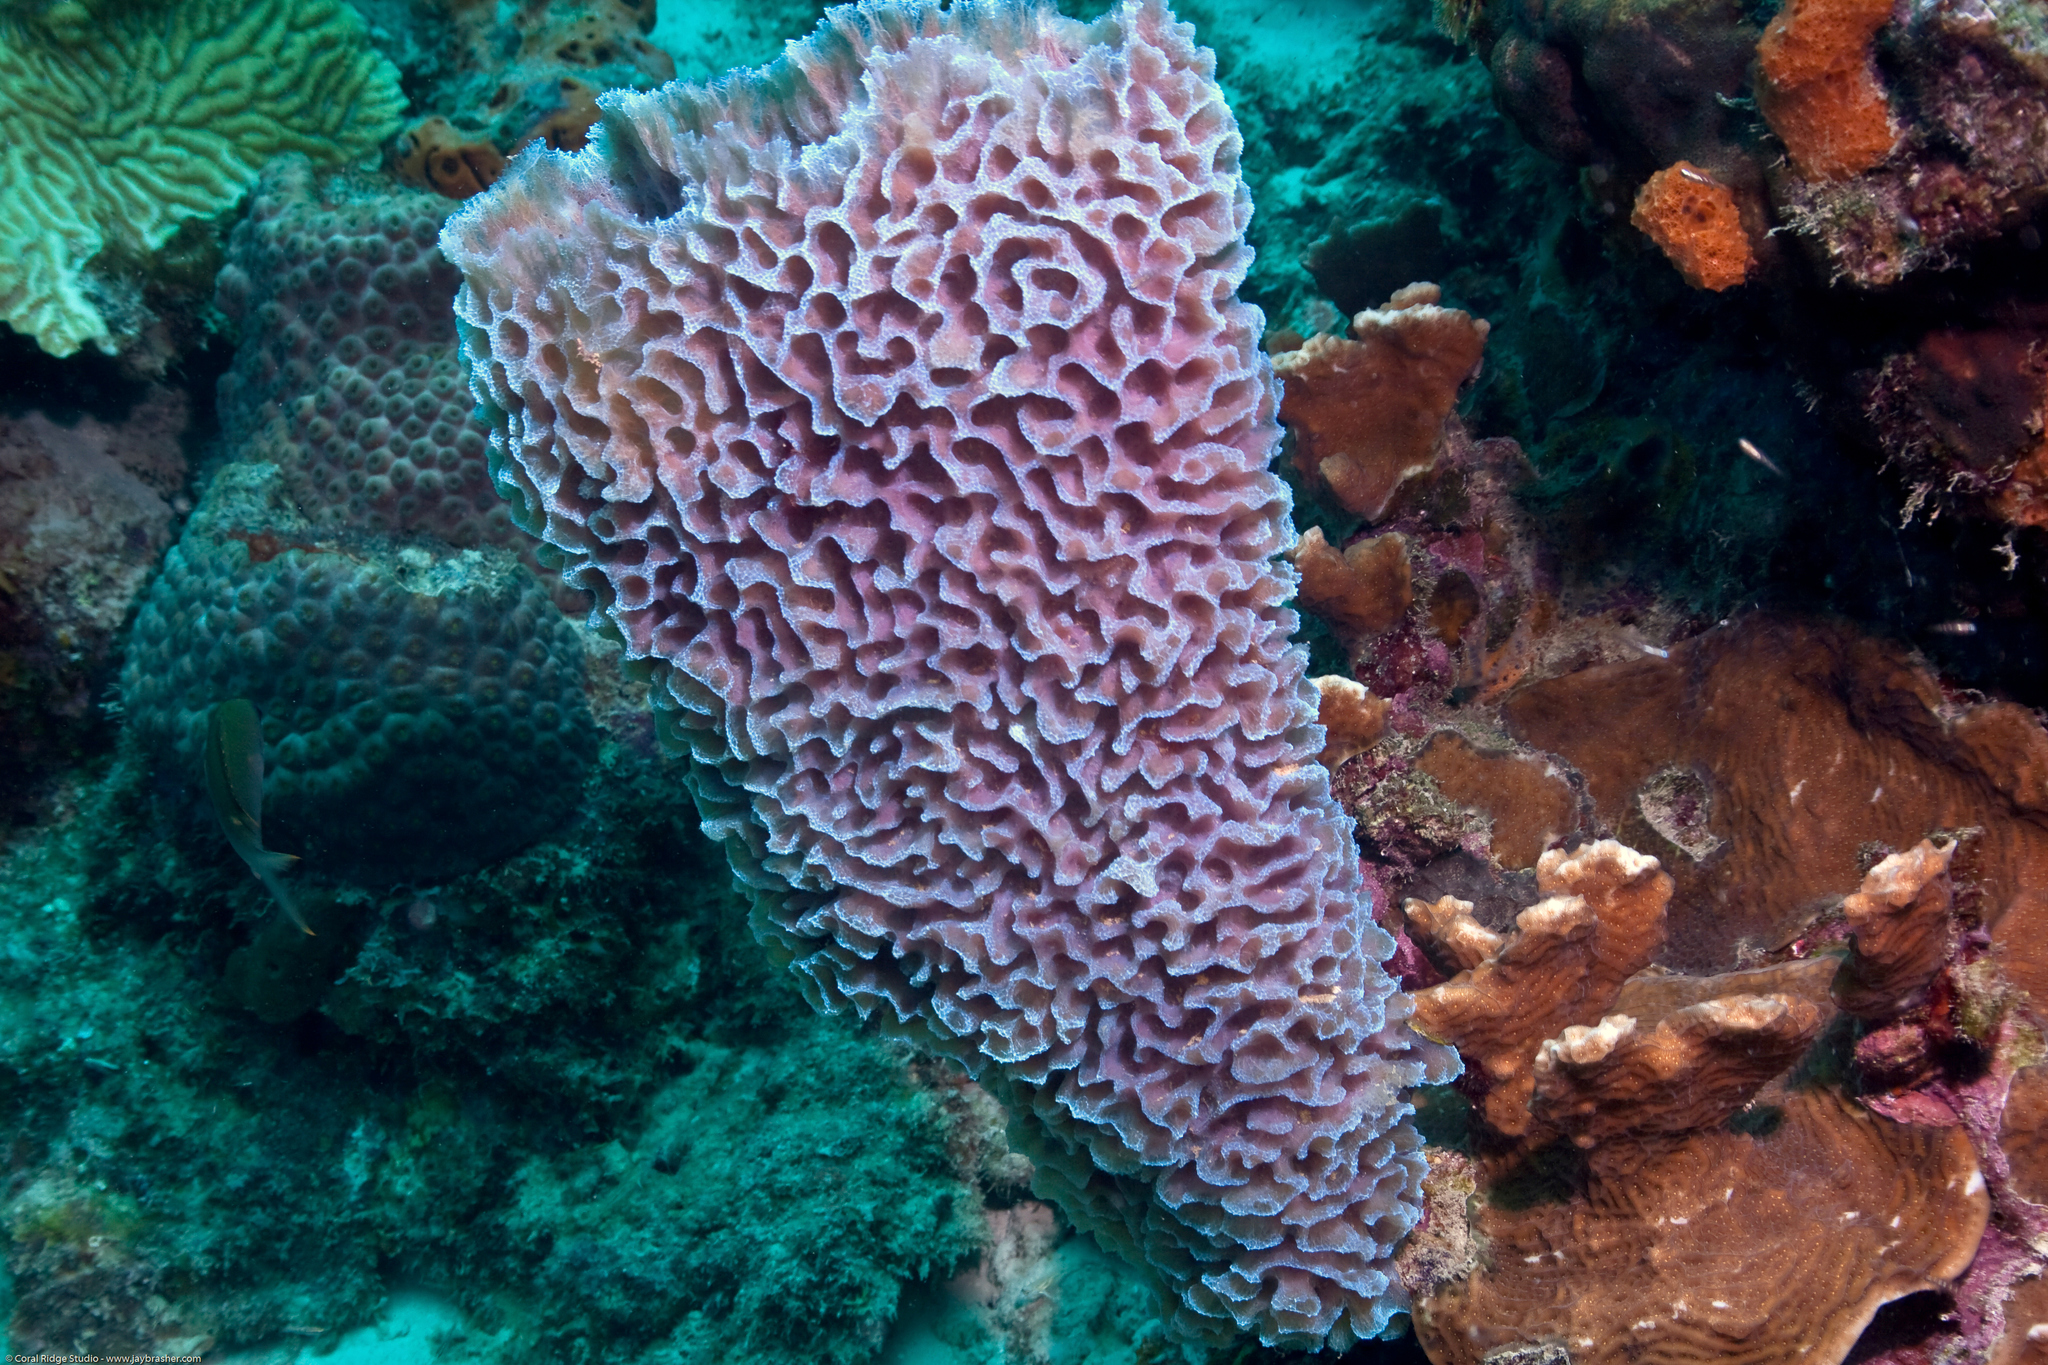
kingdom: Animalia
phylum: Porifera
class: Demospongiae
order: Haplosclerida
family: Callyspongiidae
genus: Callyspongia
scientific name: Callyspongia plicifera
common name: Azure vase sponge
